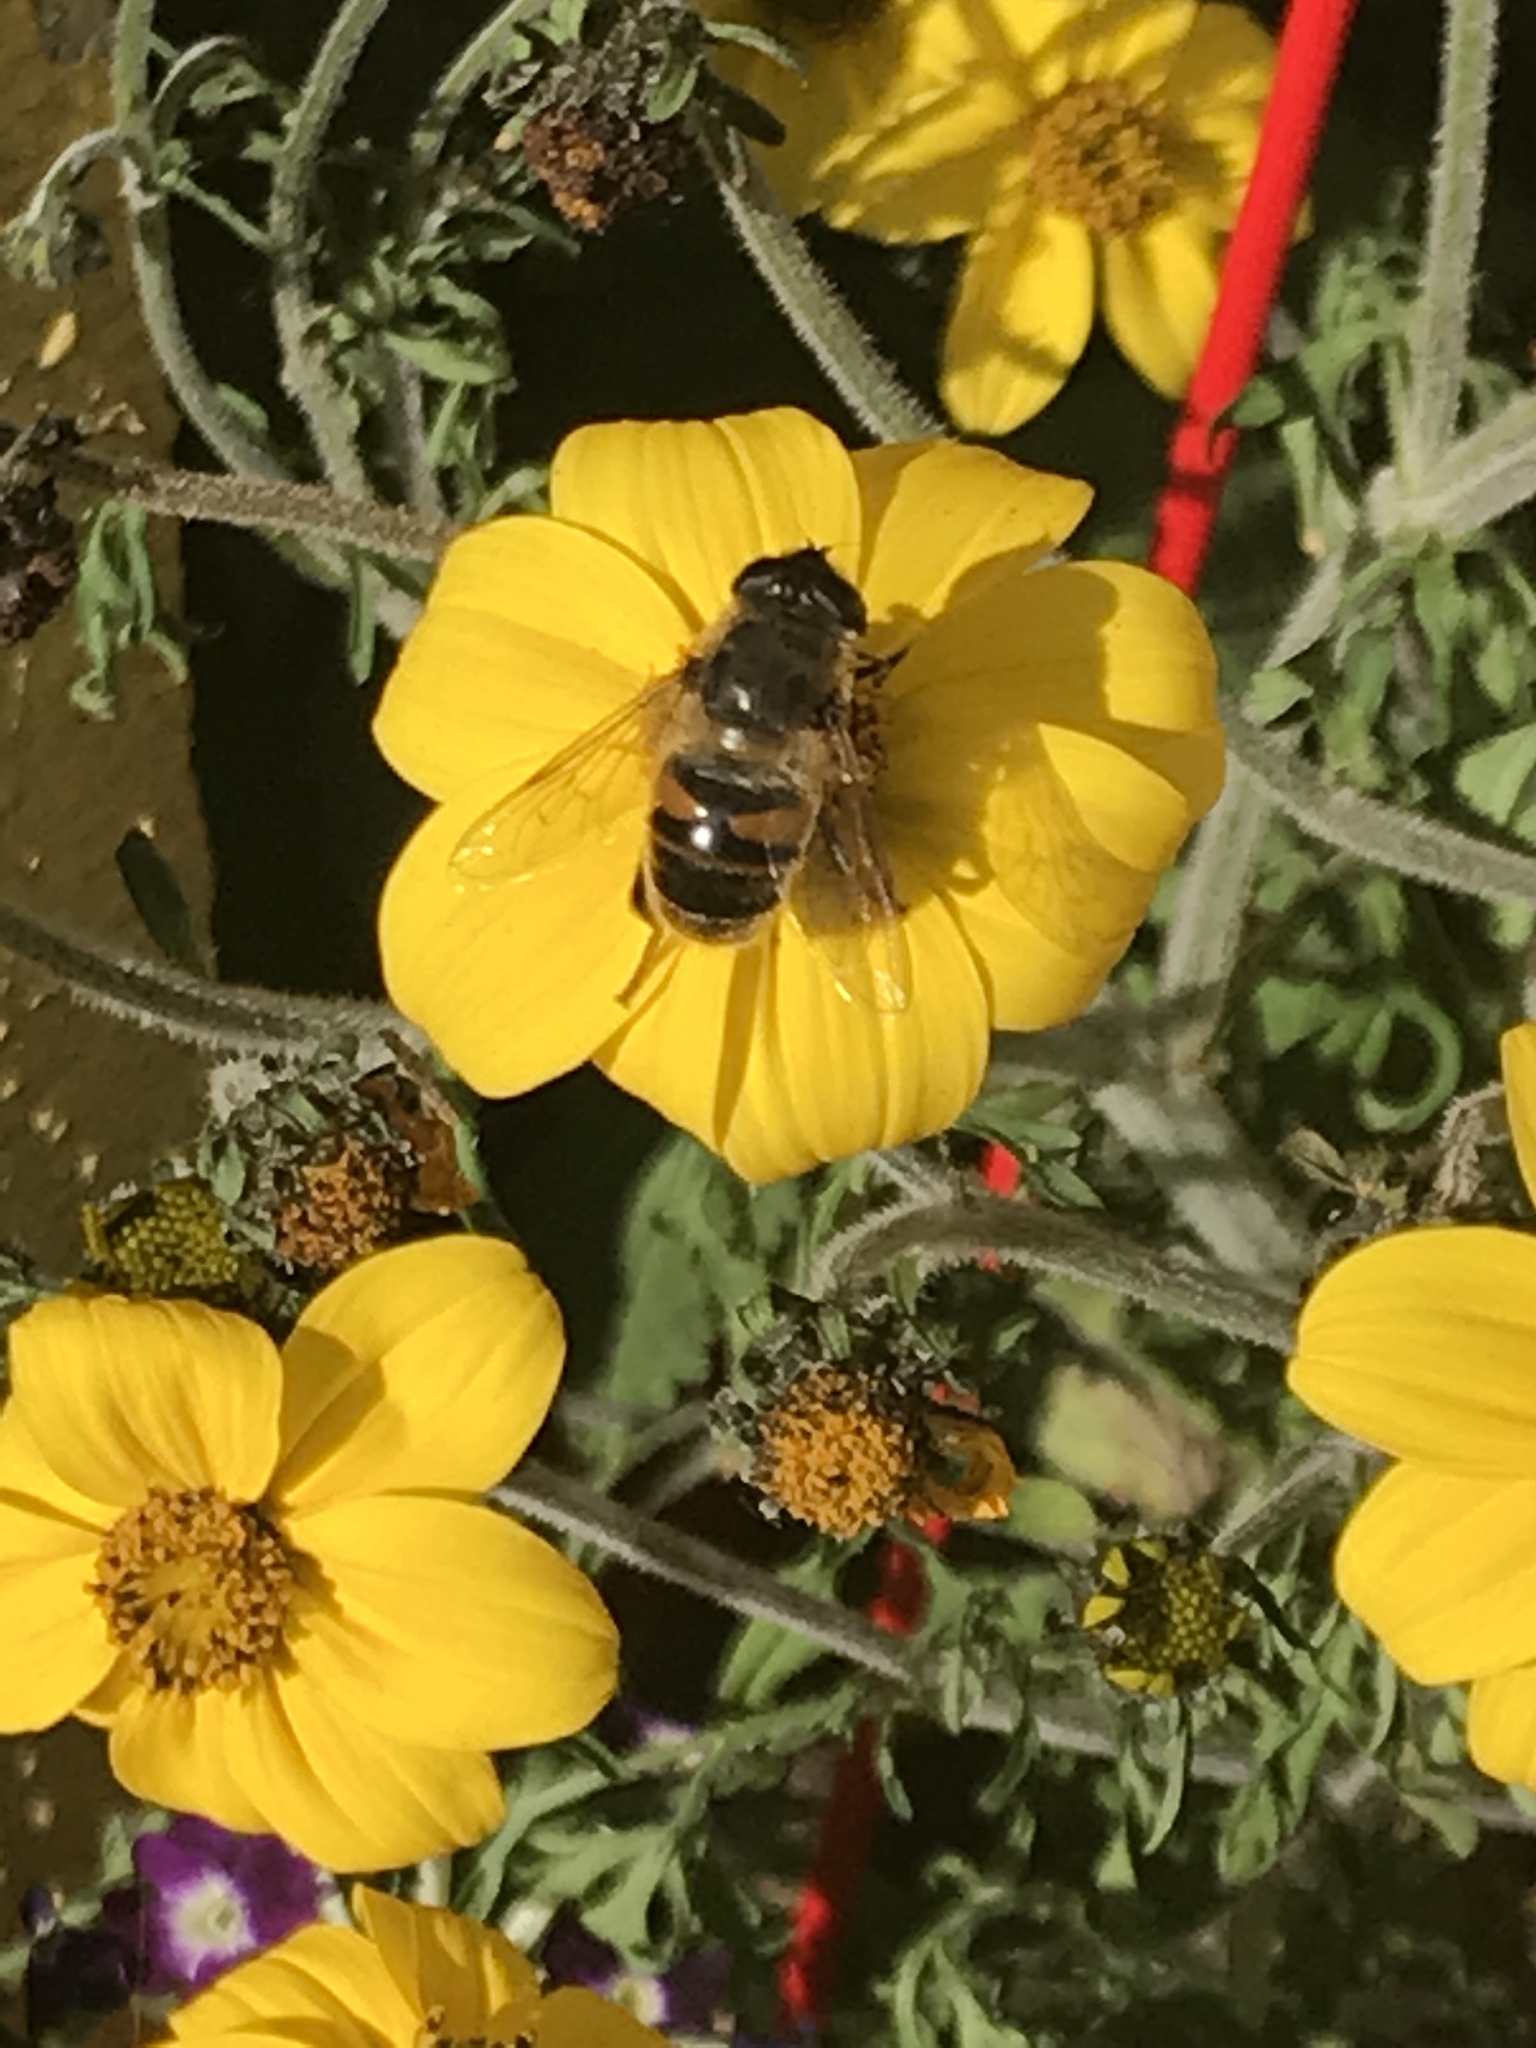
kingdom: Animalia
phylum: Arthropoda
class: Insecta
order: Diptera
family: Syrphidae
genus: Eristalis
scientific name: Eristalis tenax
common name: Drone fly
